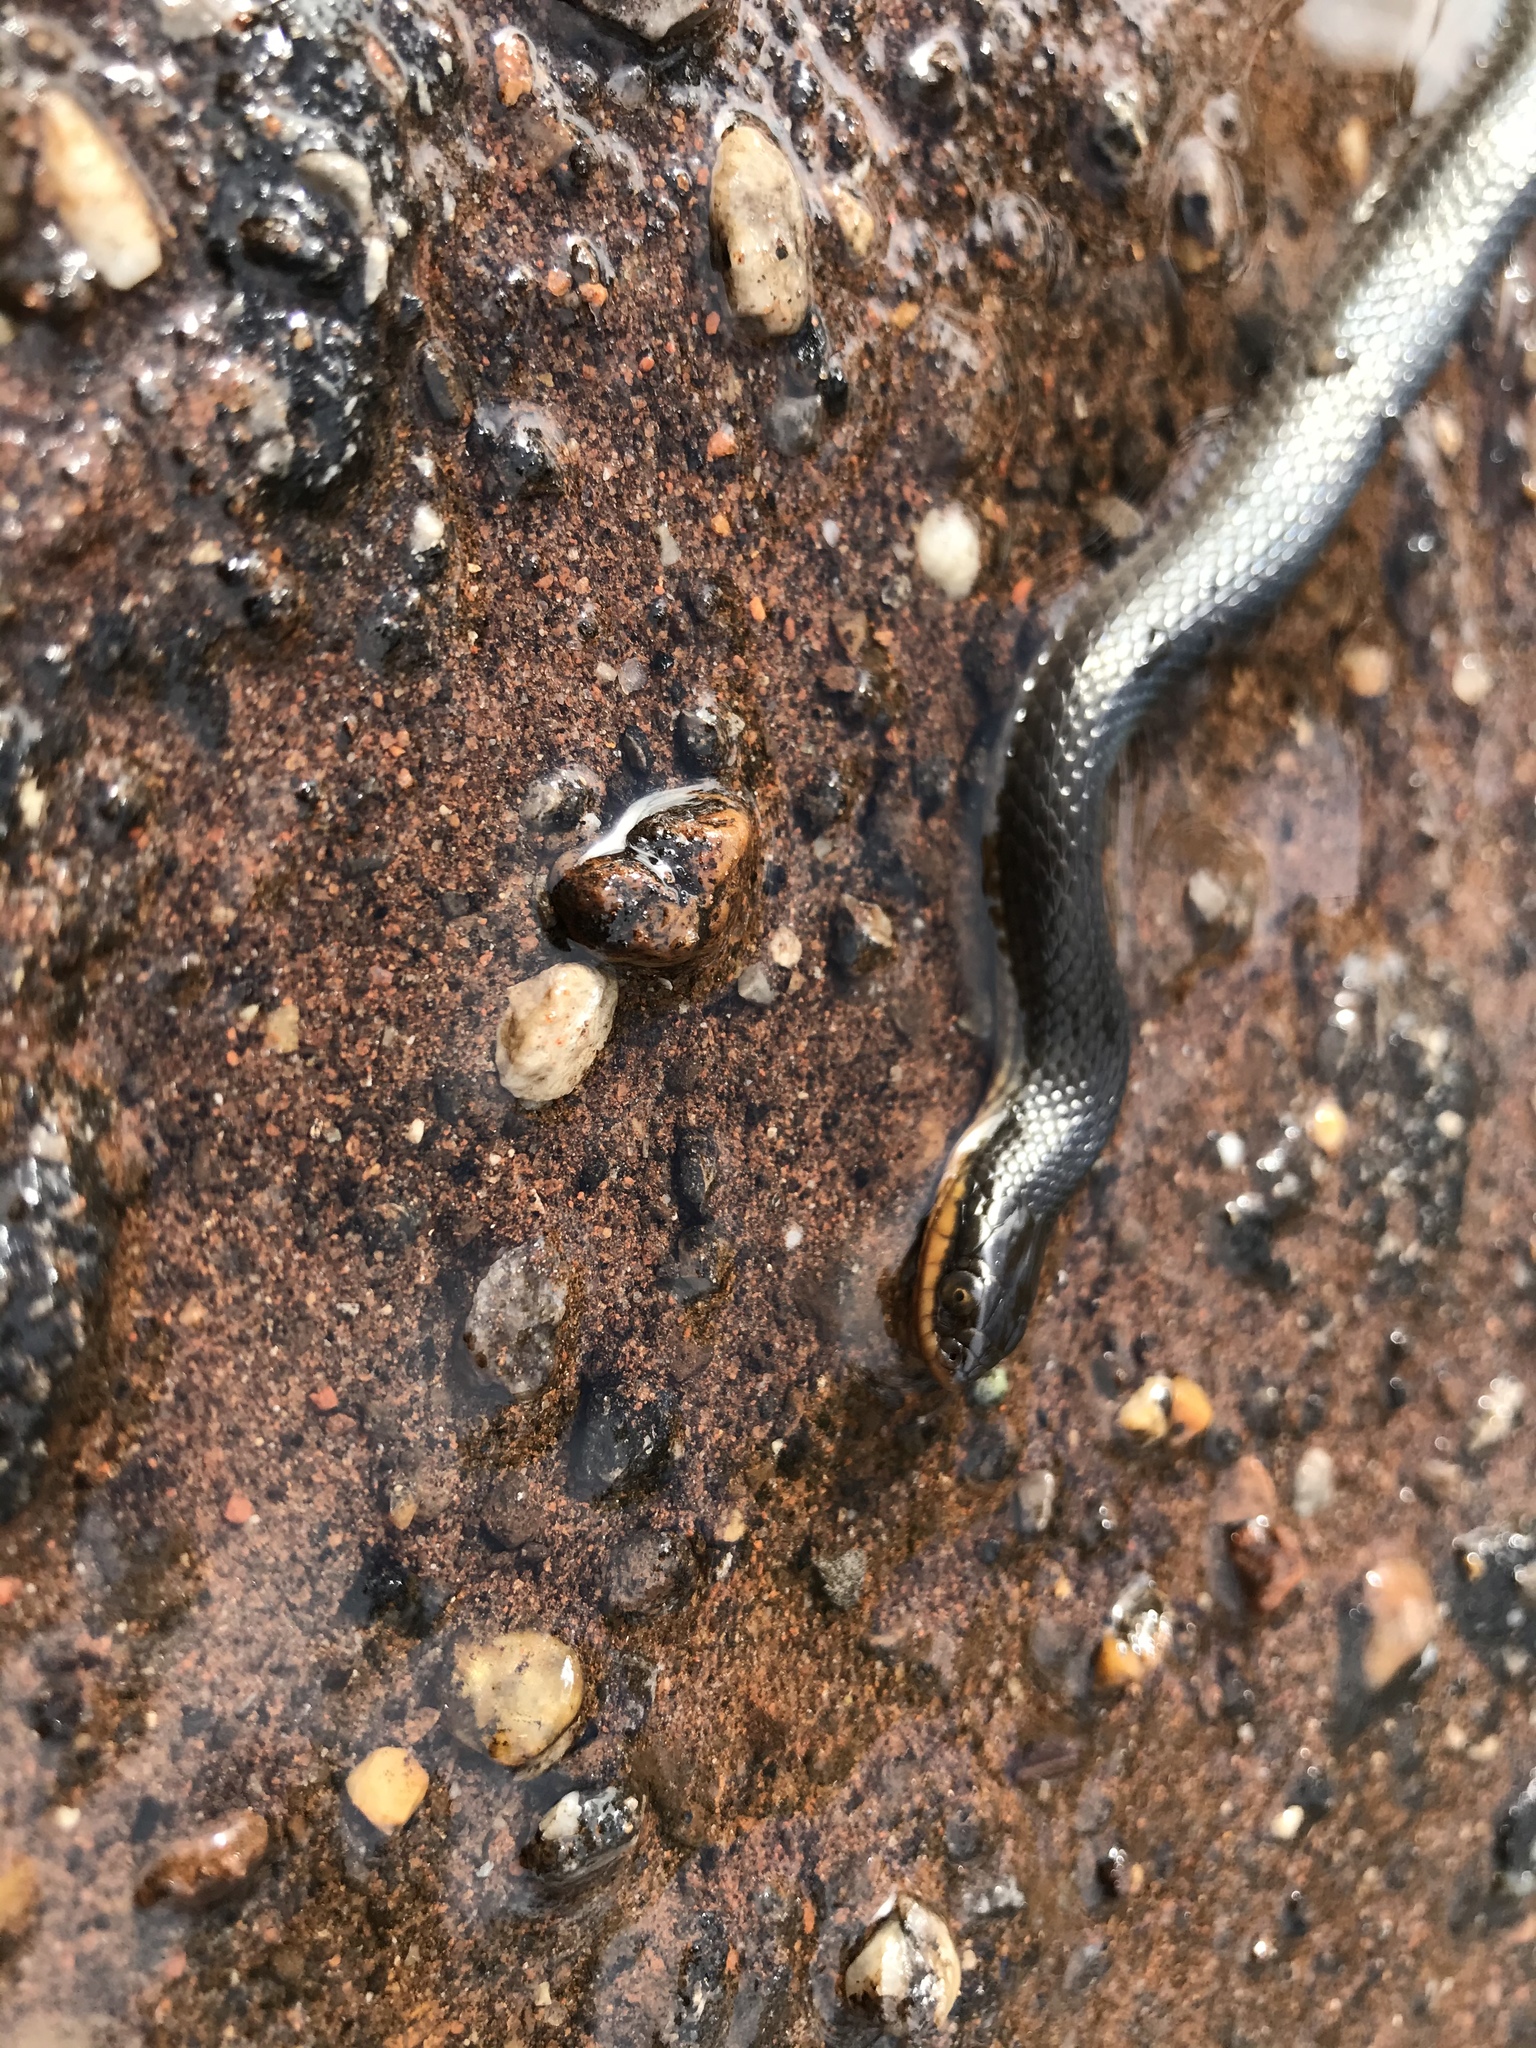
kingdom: Animalia
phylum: Chordata
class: Squamata
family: Colubridae
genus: Liodytes
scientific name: Liodytes rigida
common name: Crayfish snake
